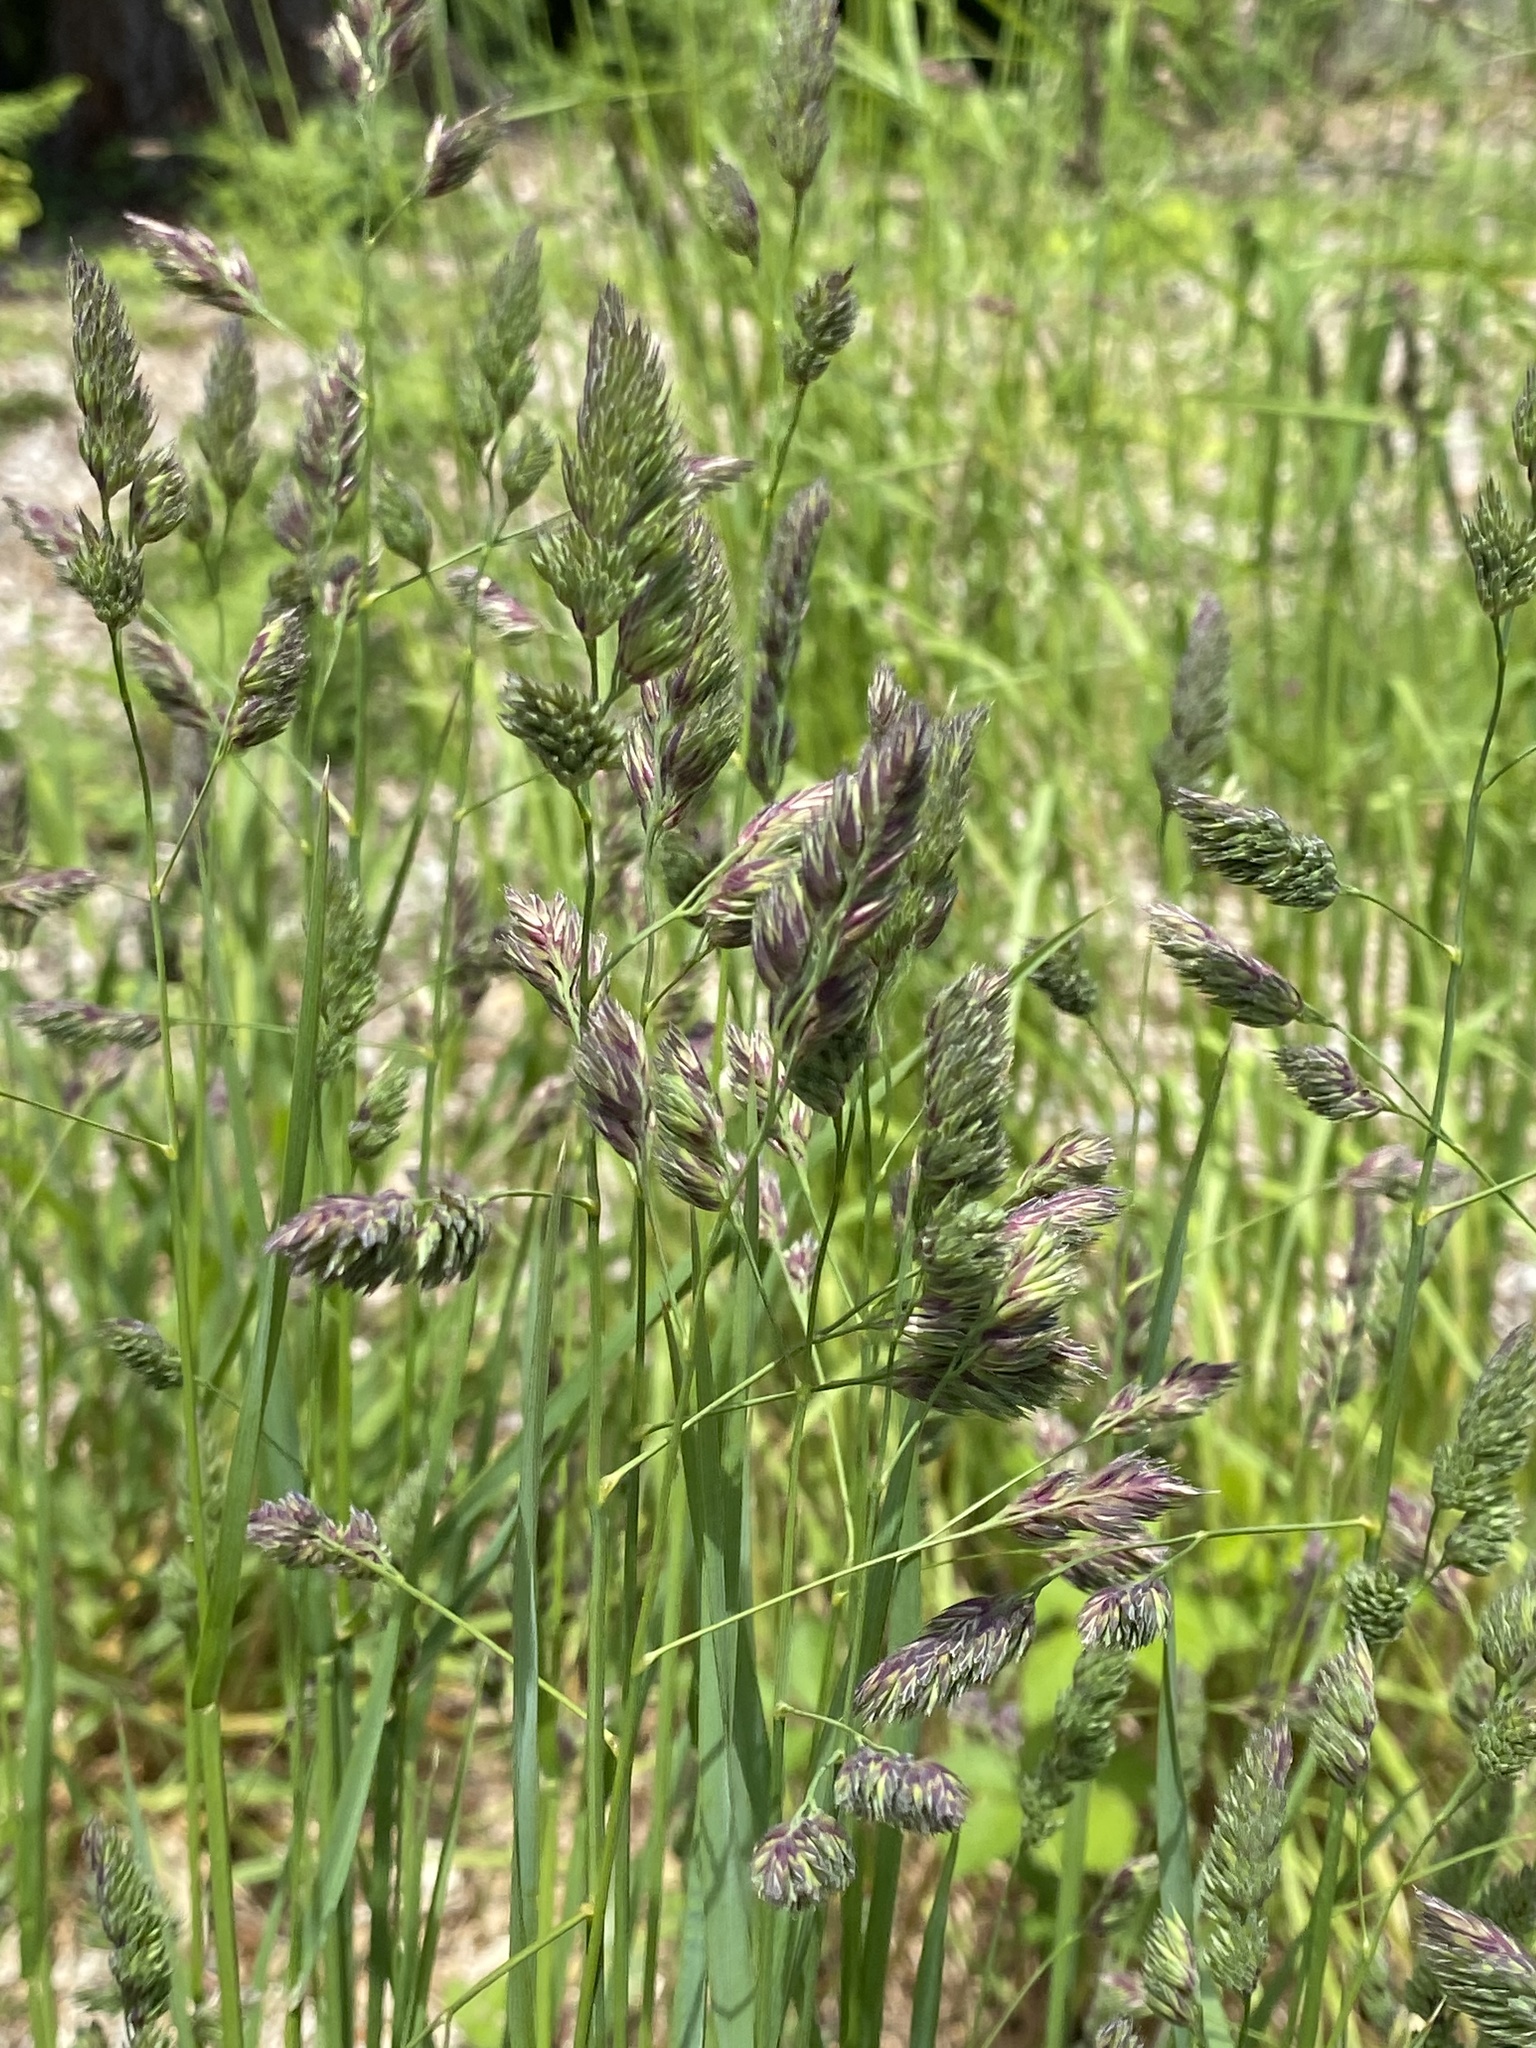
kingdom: Plantae
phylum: Tracheophyta
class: Liliopsida
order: Poales
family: Poaceae
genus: Dactylis
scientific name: Dactylis glomerata
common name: Orchardgrass
